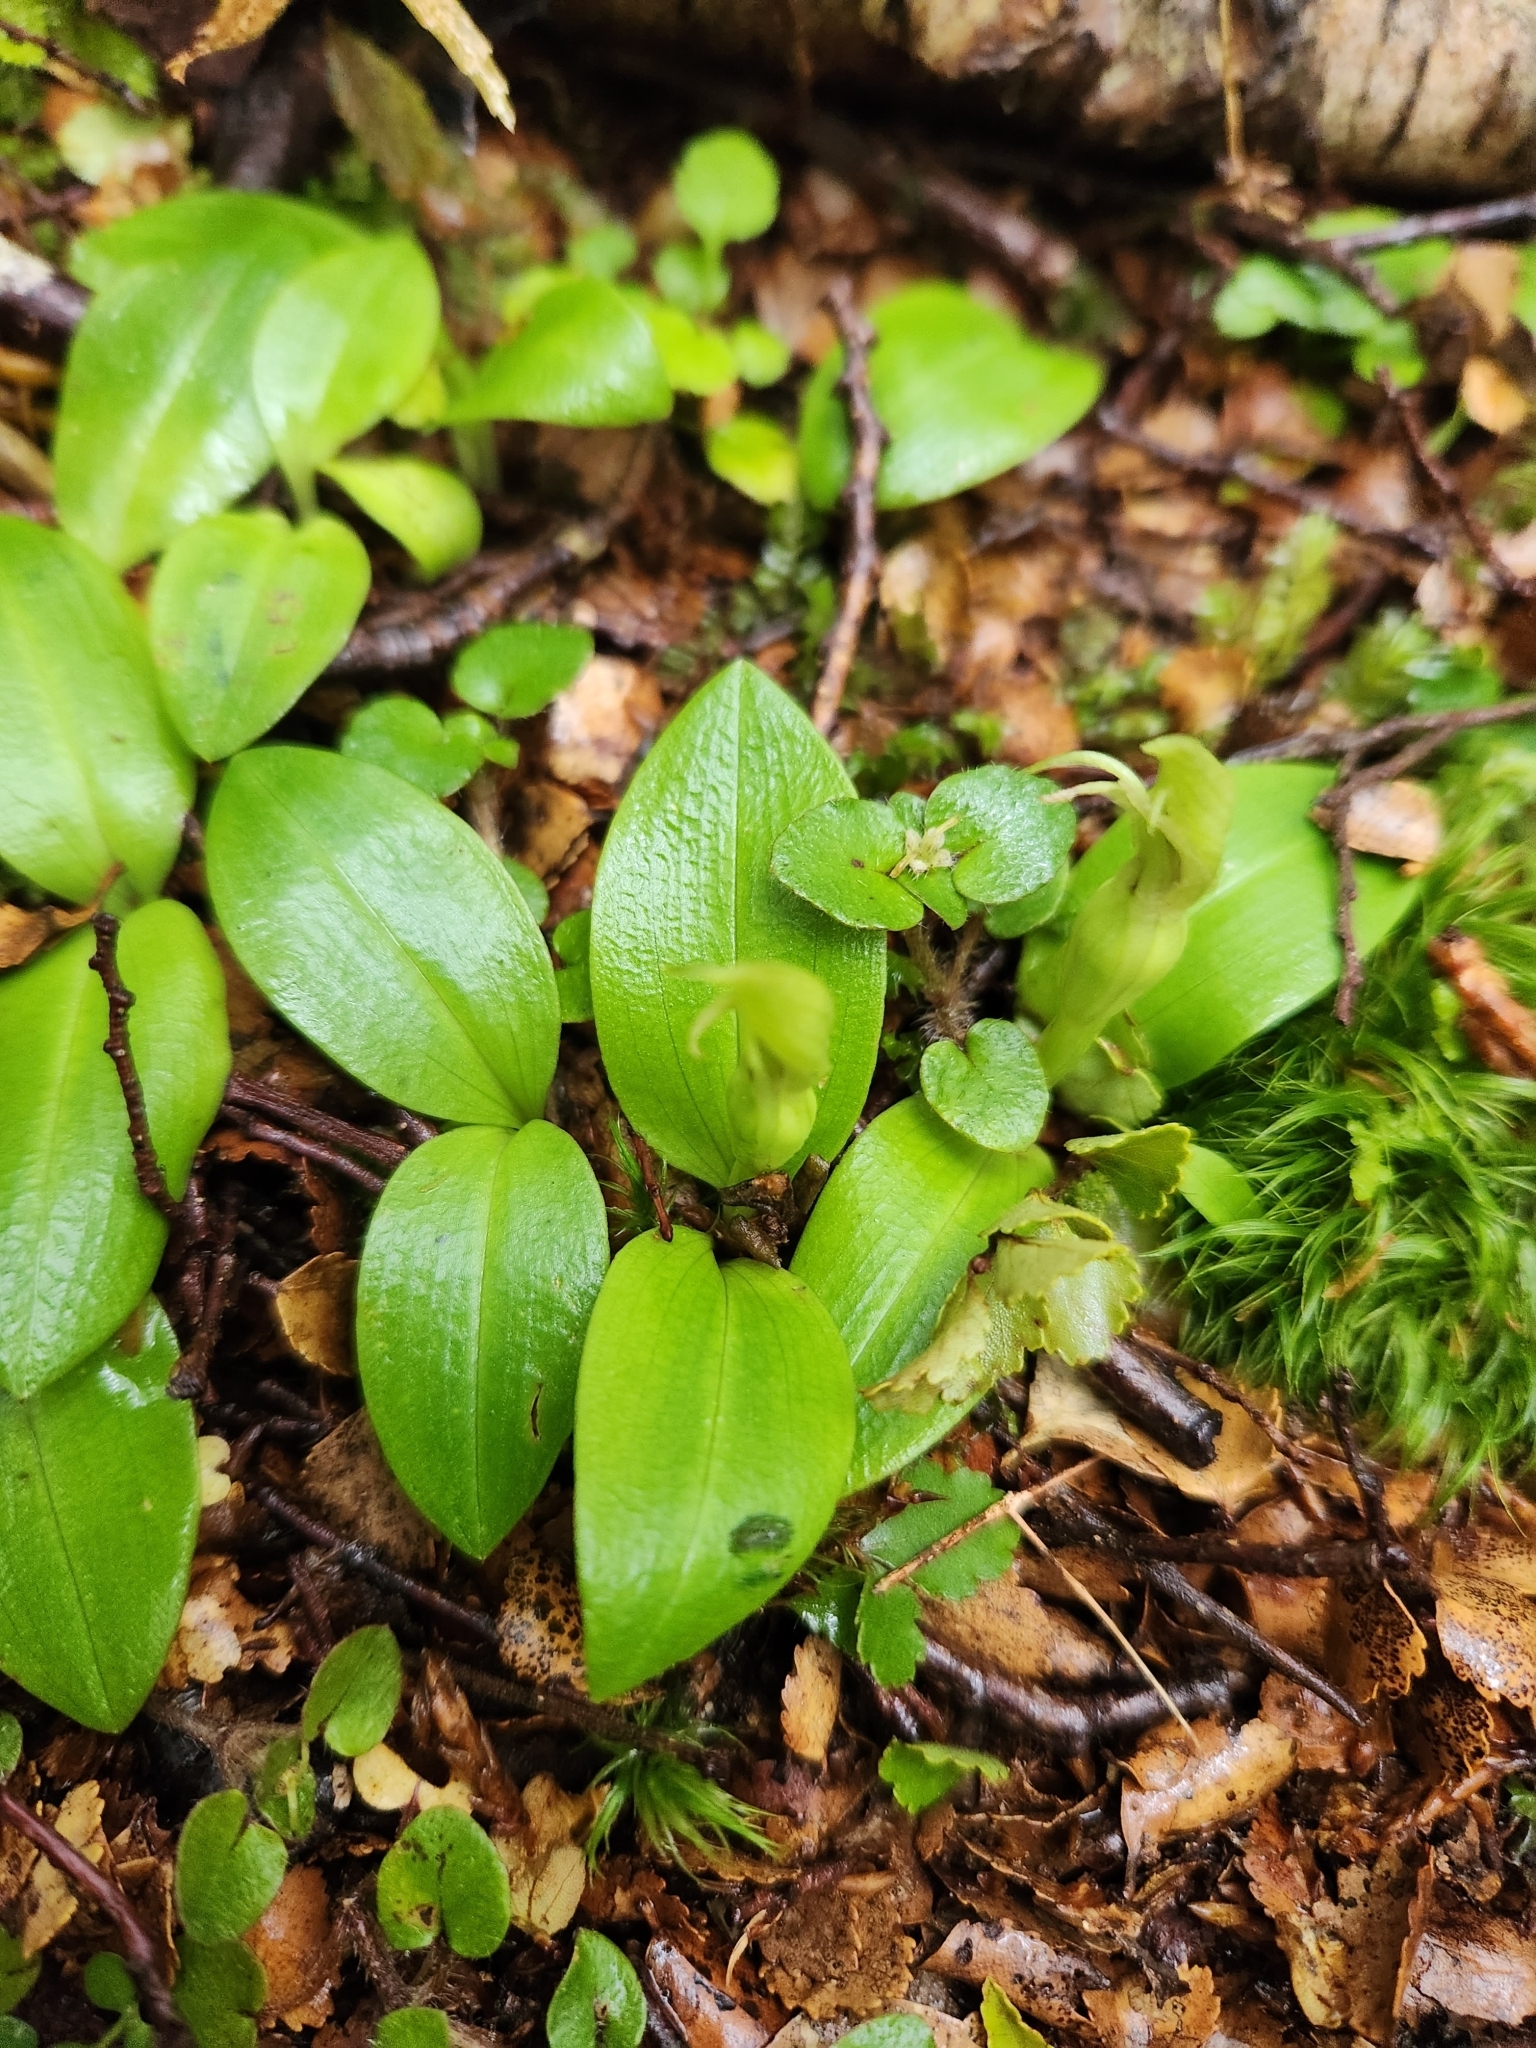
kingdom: Plantae
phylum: Tracheophyta
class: Liliopsida
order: Asparagales
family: Orchidaceae
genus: Chiloglottis
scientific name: Chiloglottis cornuta
